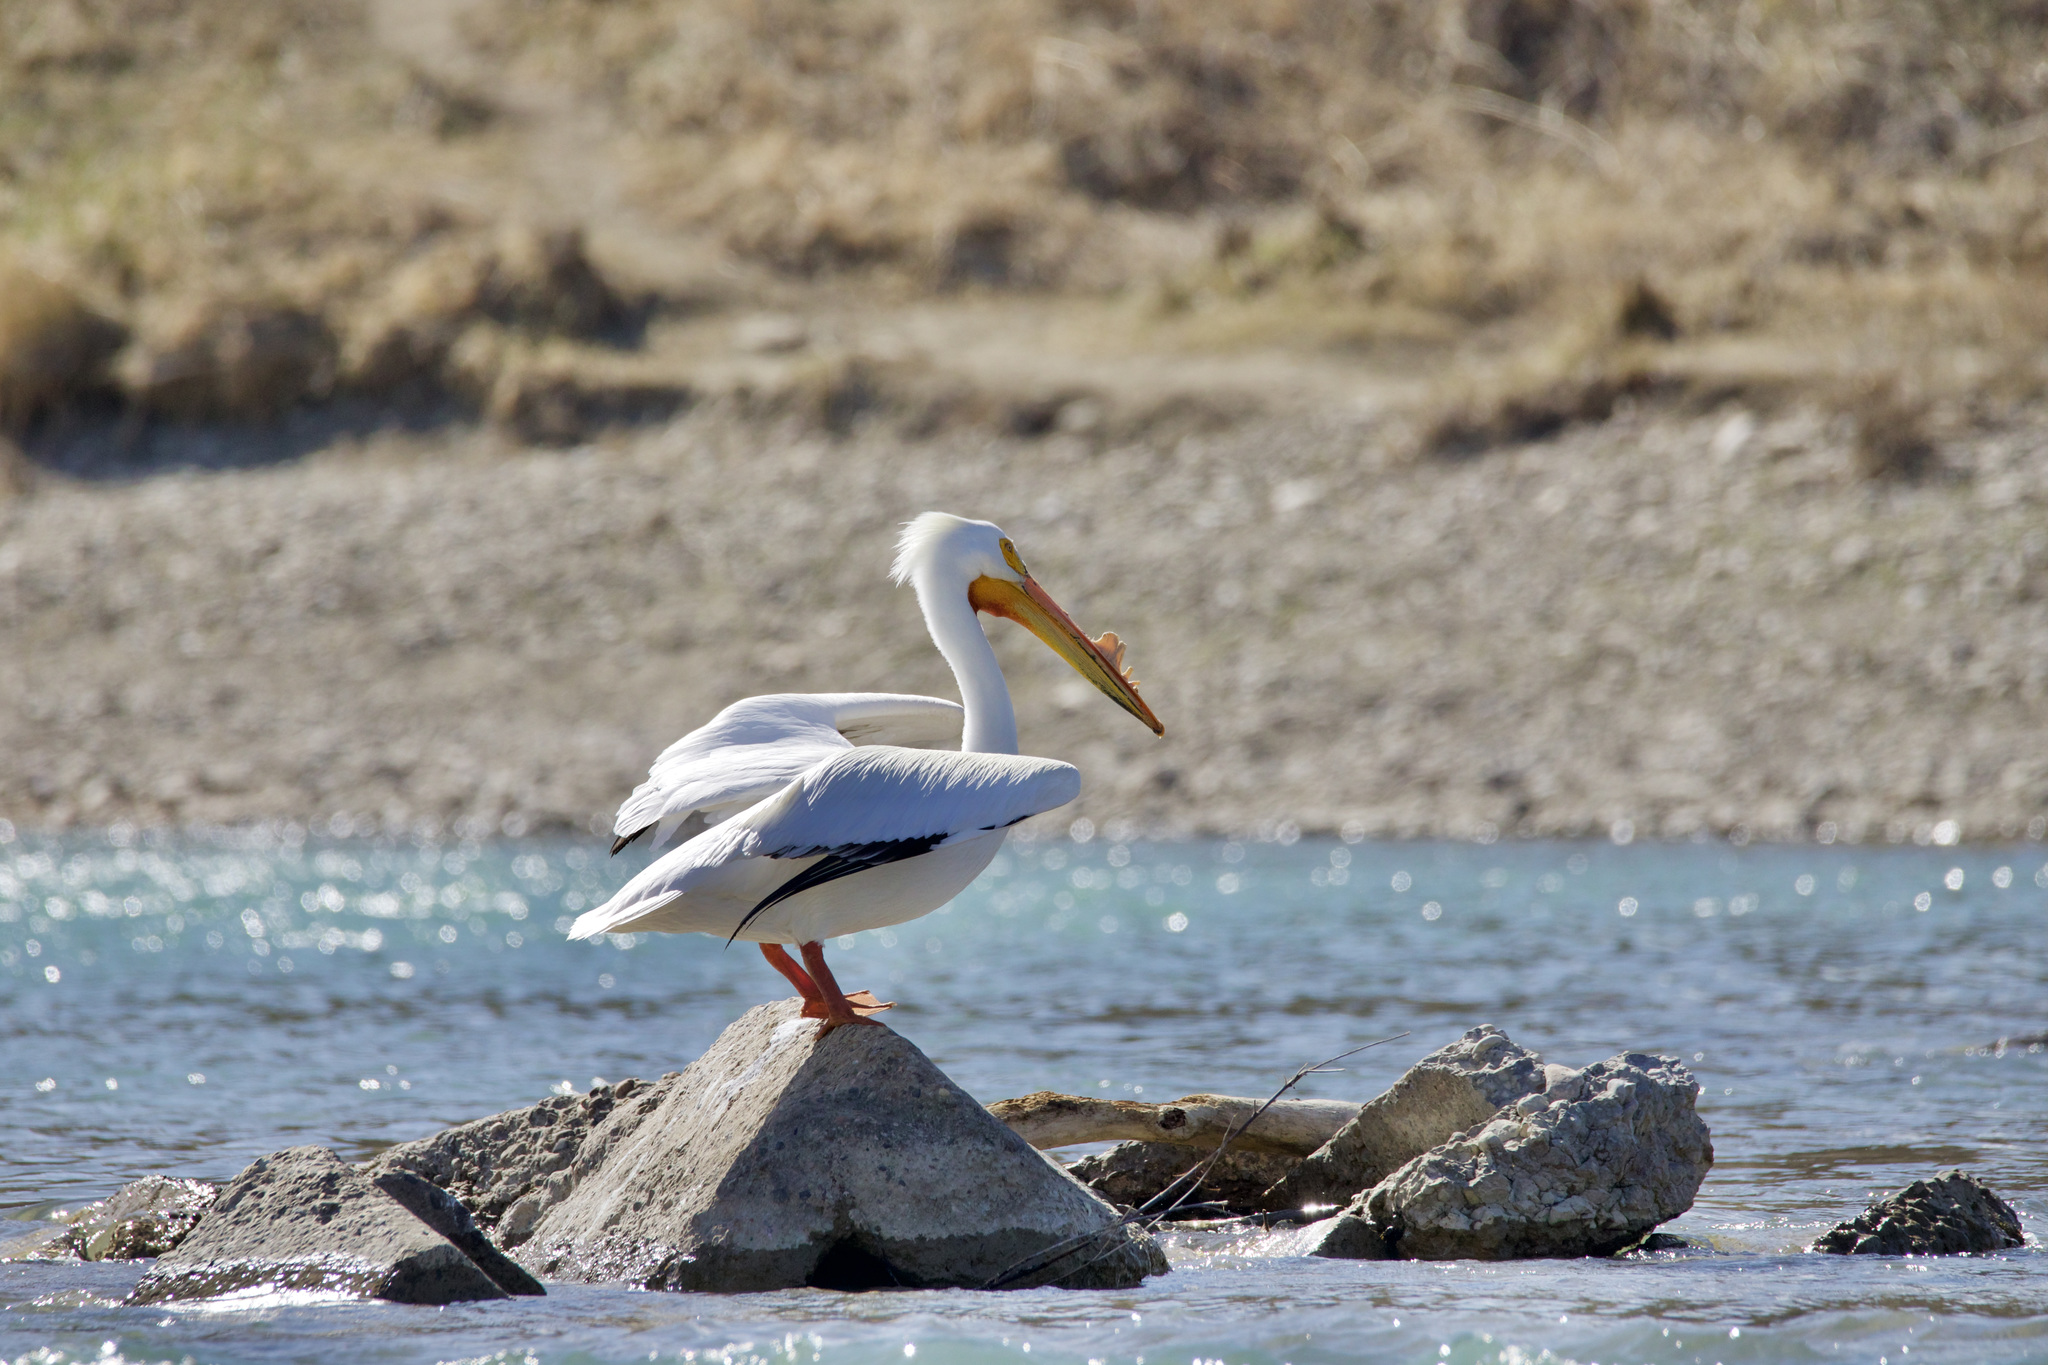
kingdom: Animalia
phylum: Chordata
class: Aves
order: Pelecaniformes
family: Pelecanidae
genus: Pelecanus
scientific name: Pelecanus erythrorhynchos
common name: American white pelican
